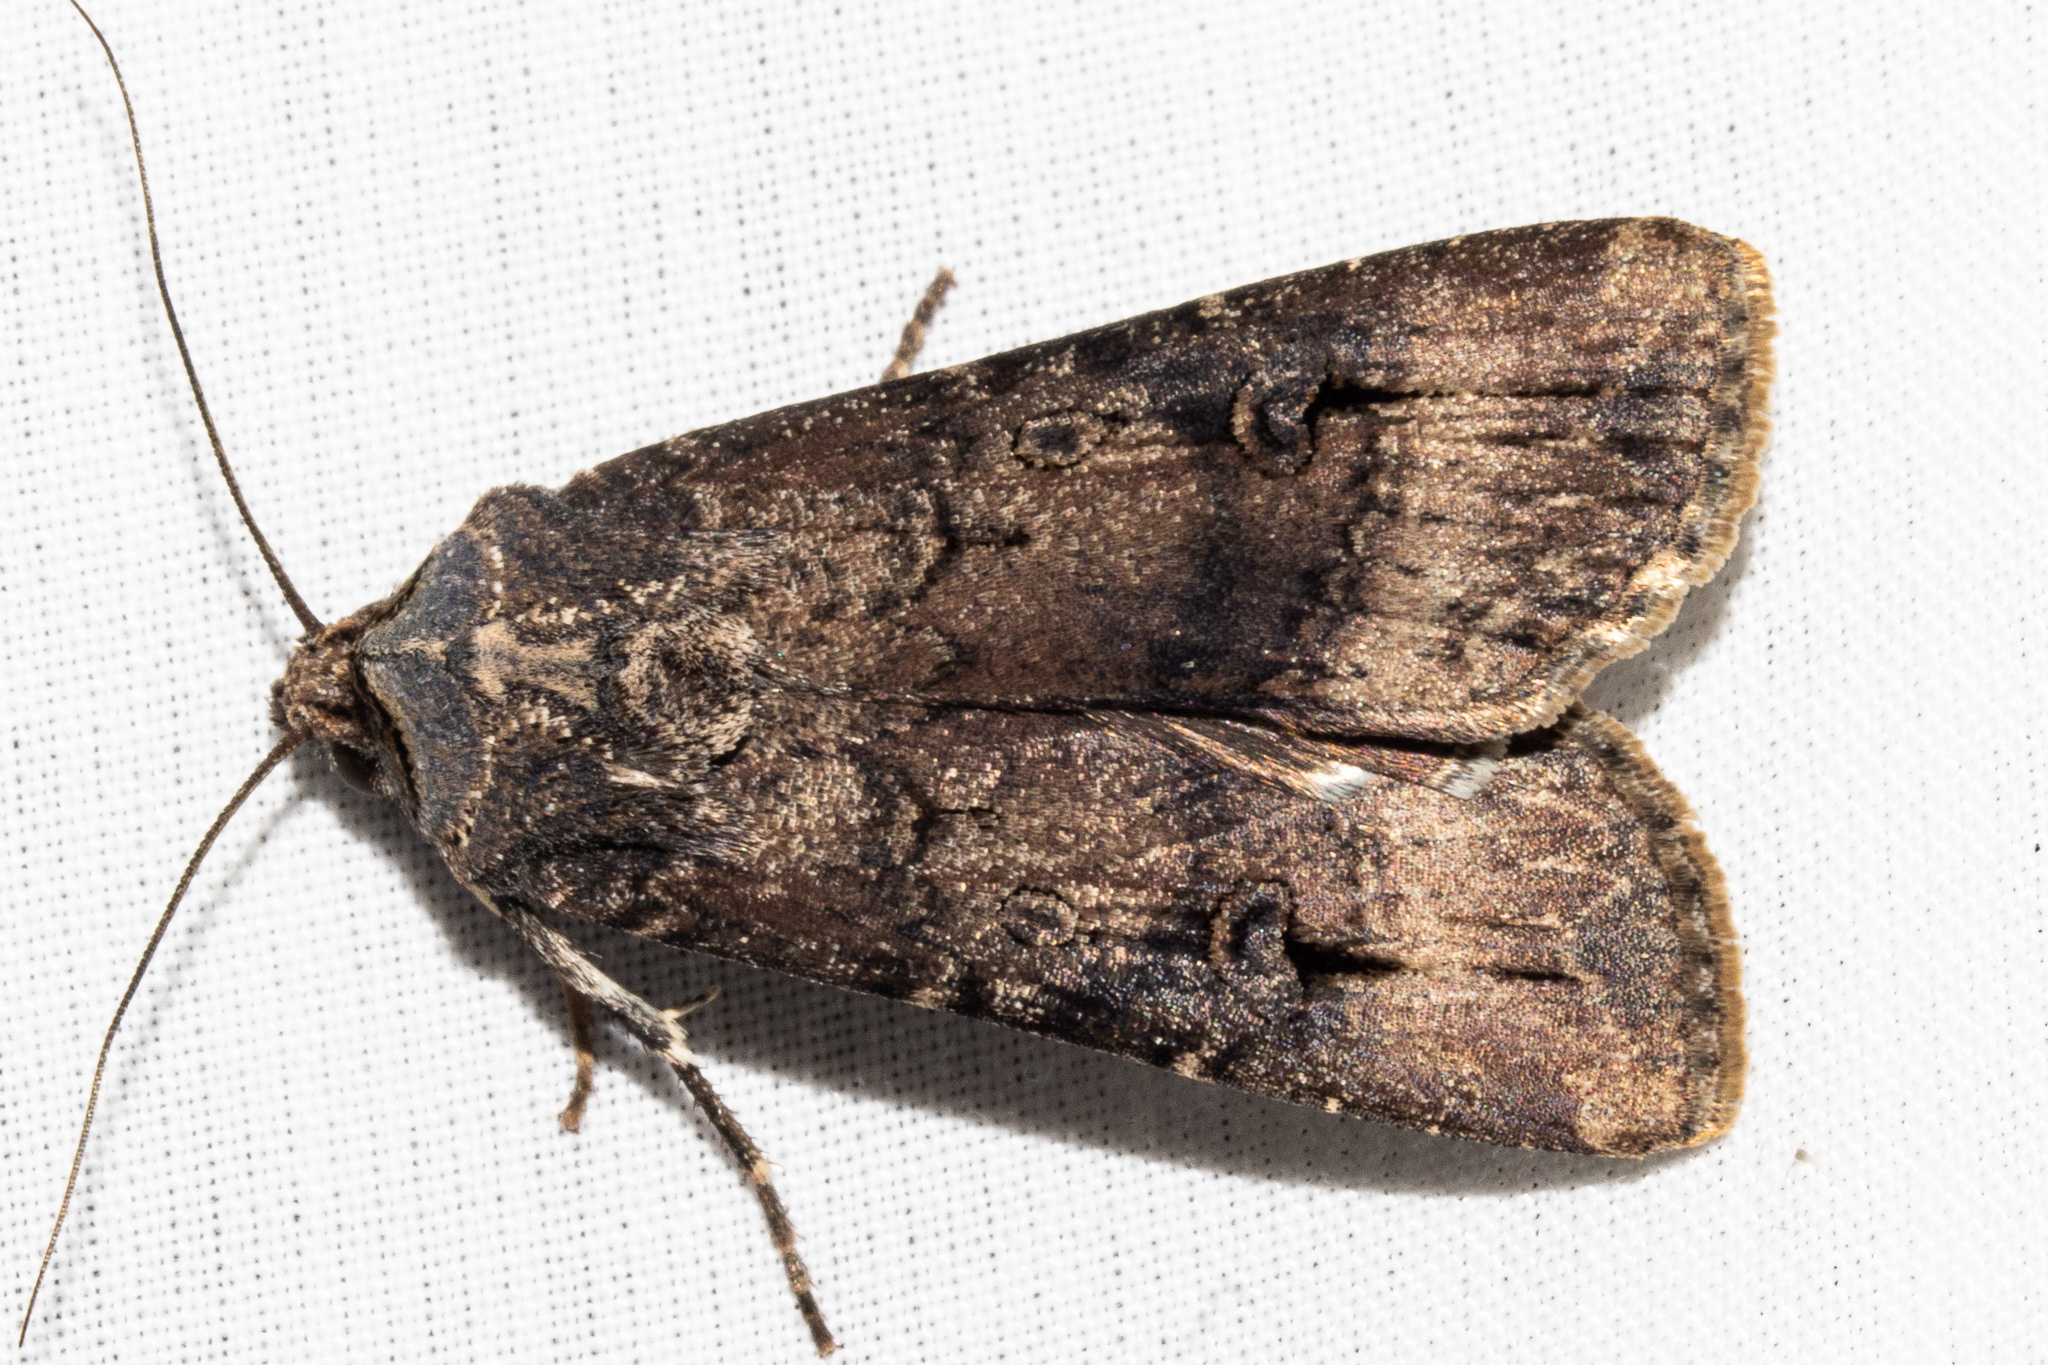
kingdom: Animalia
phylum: Arthropoda
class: Insecta
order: Lepidoptera
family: Noctuidae
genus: Agrotis
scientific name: Agrotis ipsilon
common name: Dark sword-grass
